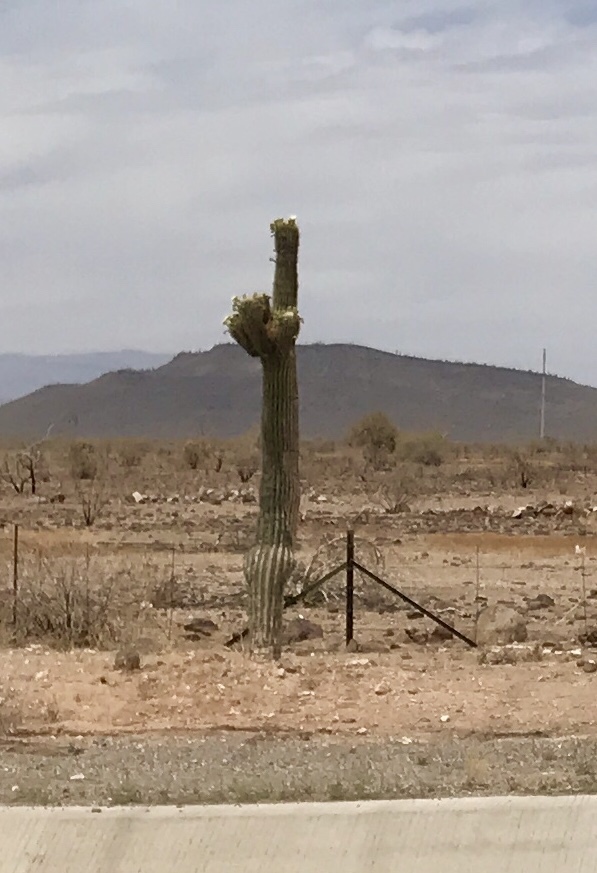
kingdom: Plantae
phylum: Tracheophyta
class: Magnoliopsida
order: Caryophyllales
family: Cactaceae
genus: Carnegiea
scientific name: Carnegiea gigantea
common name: Saguaro
